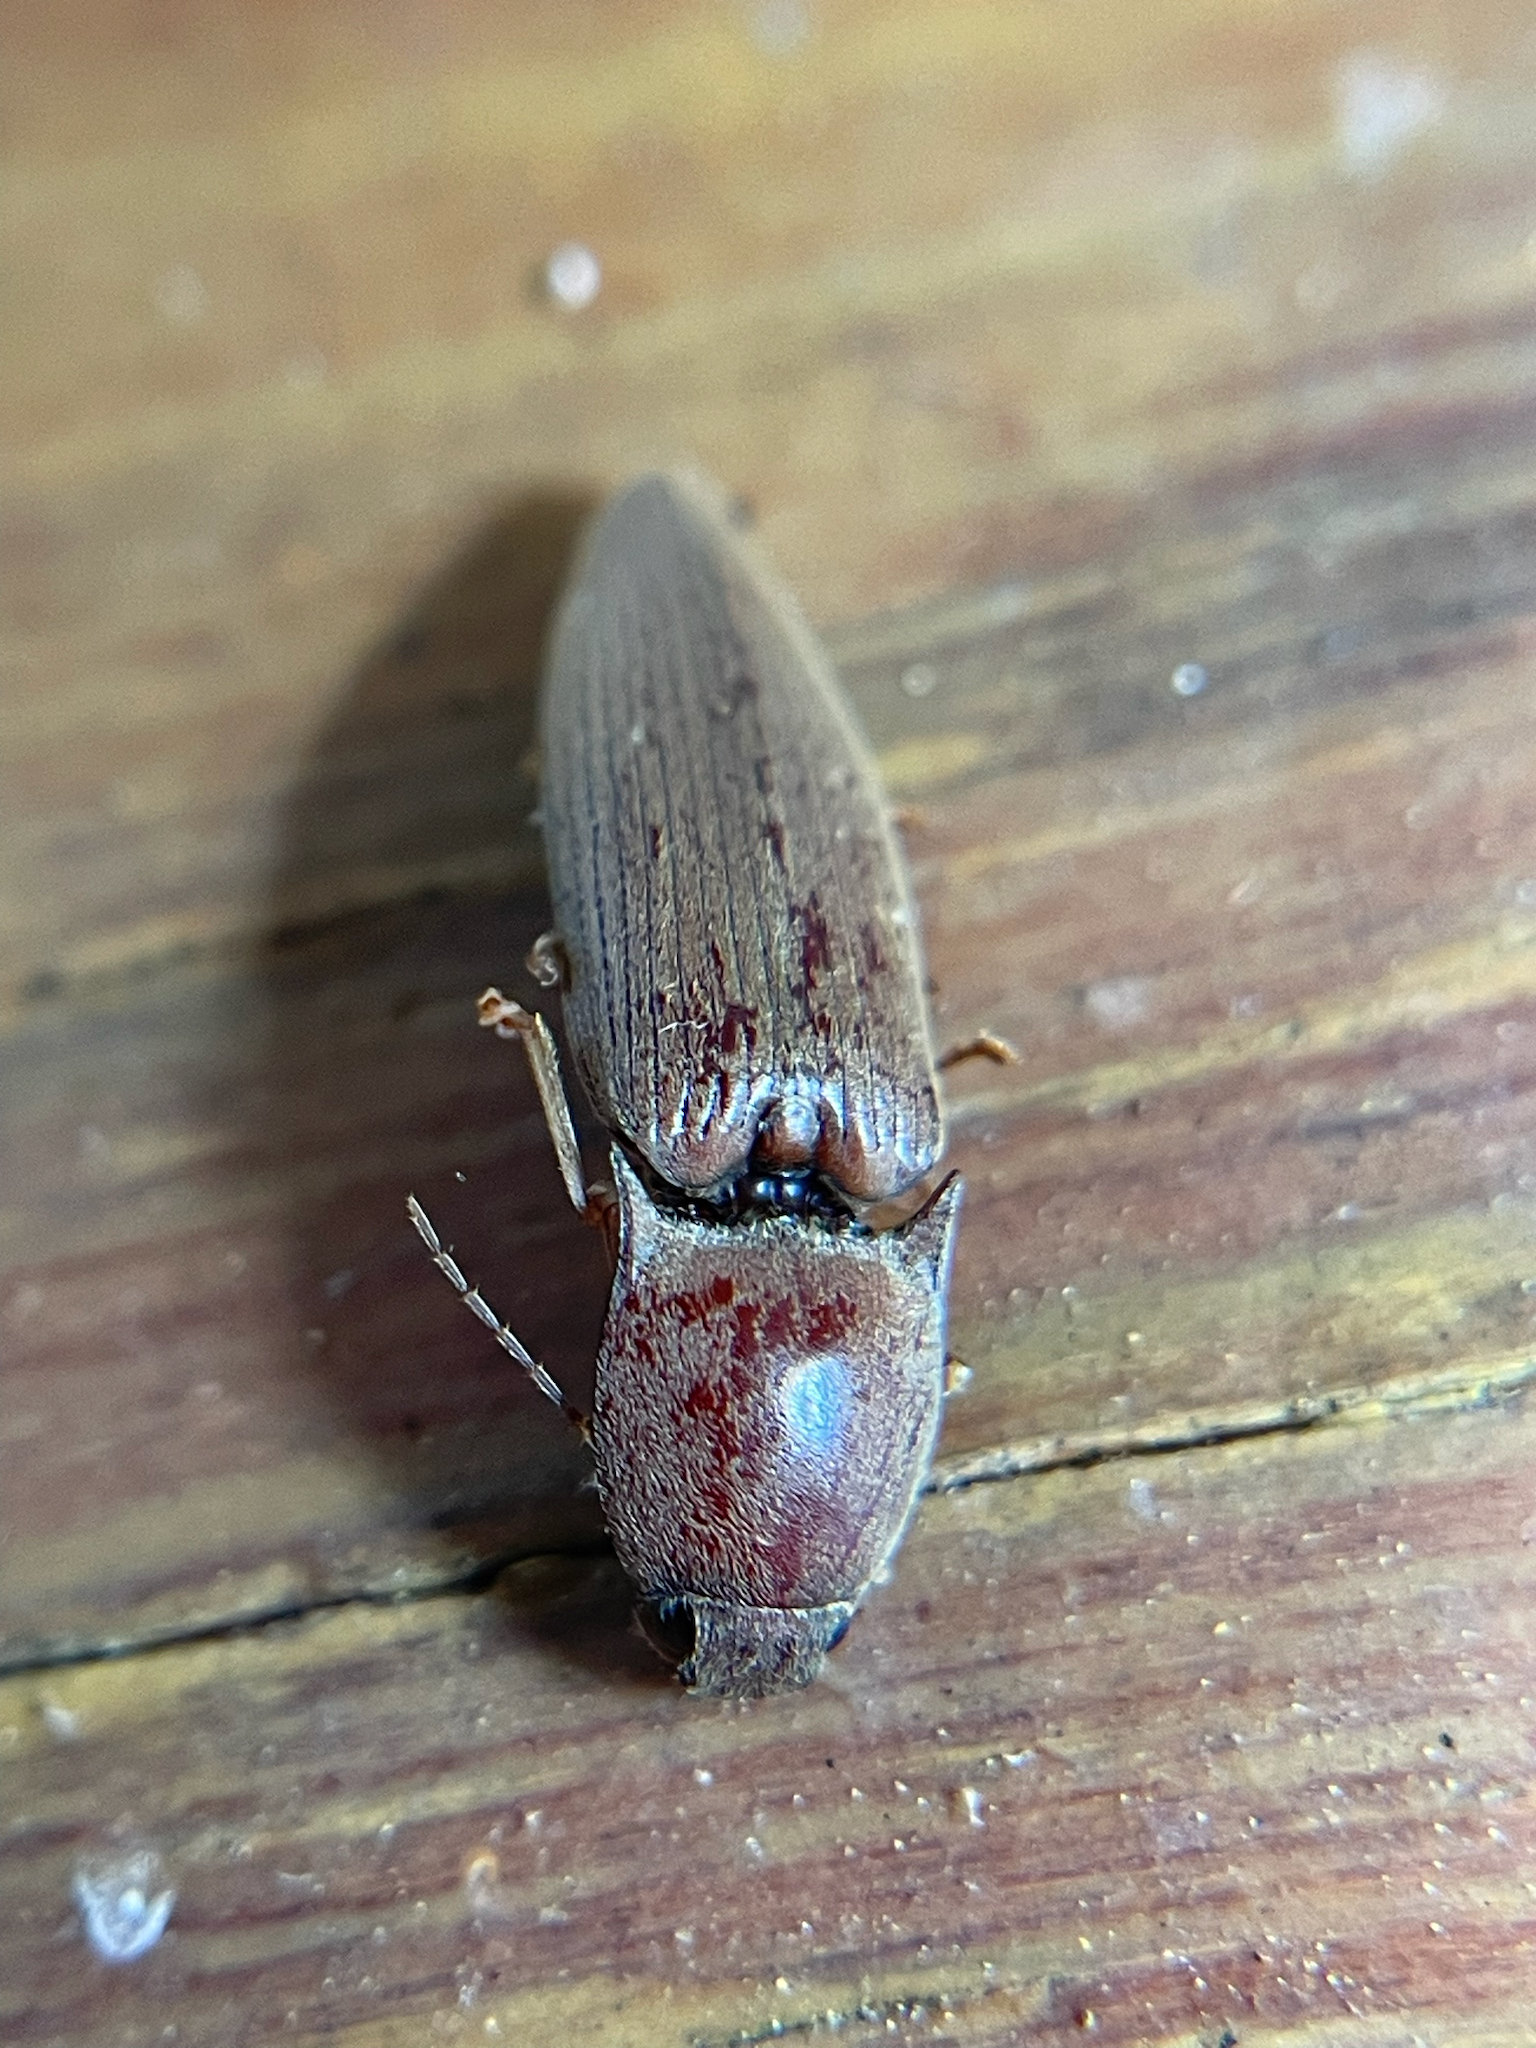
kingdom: Animalia
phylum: Arthropoda
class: Insecta
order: Coleoptera
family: Elateridae
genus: Monocrepidius
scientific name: Monocrepidius lividus
